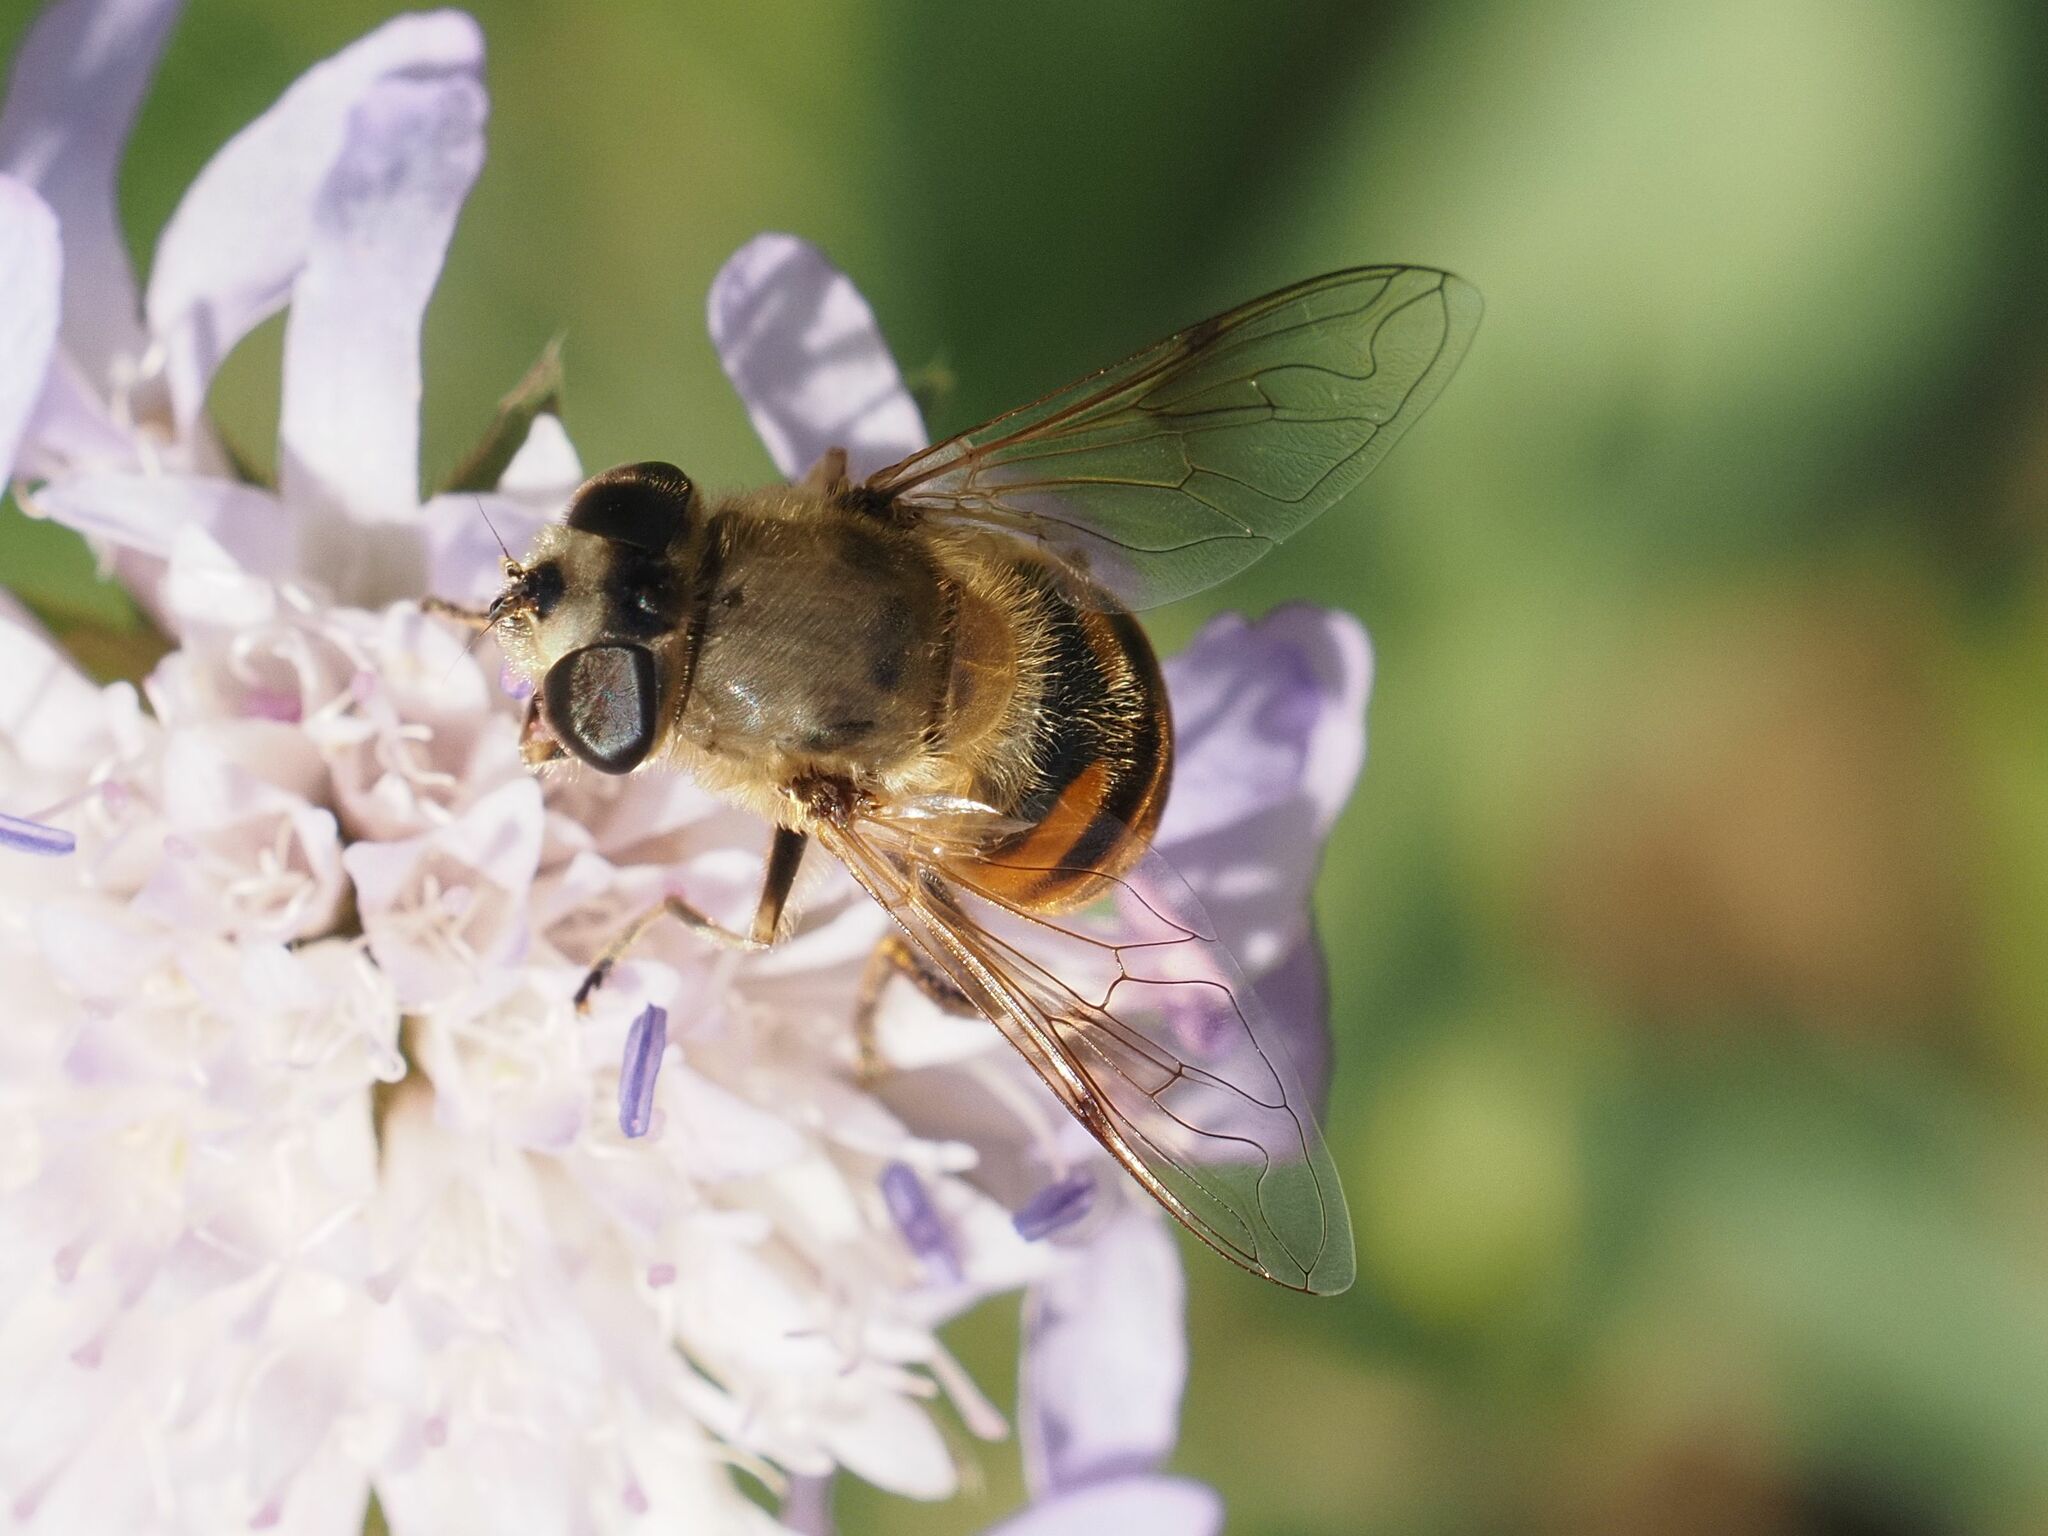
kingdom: Animalia
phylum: Arthropoda
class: Insecta
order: Diptera
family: Syrphidae
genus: Eristalis
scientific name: Eristalis tenax
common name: Drone fly
